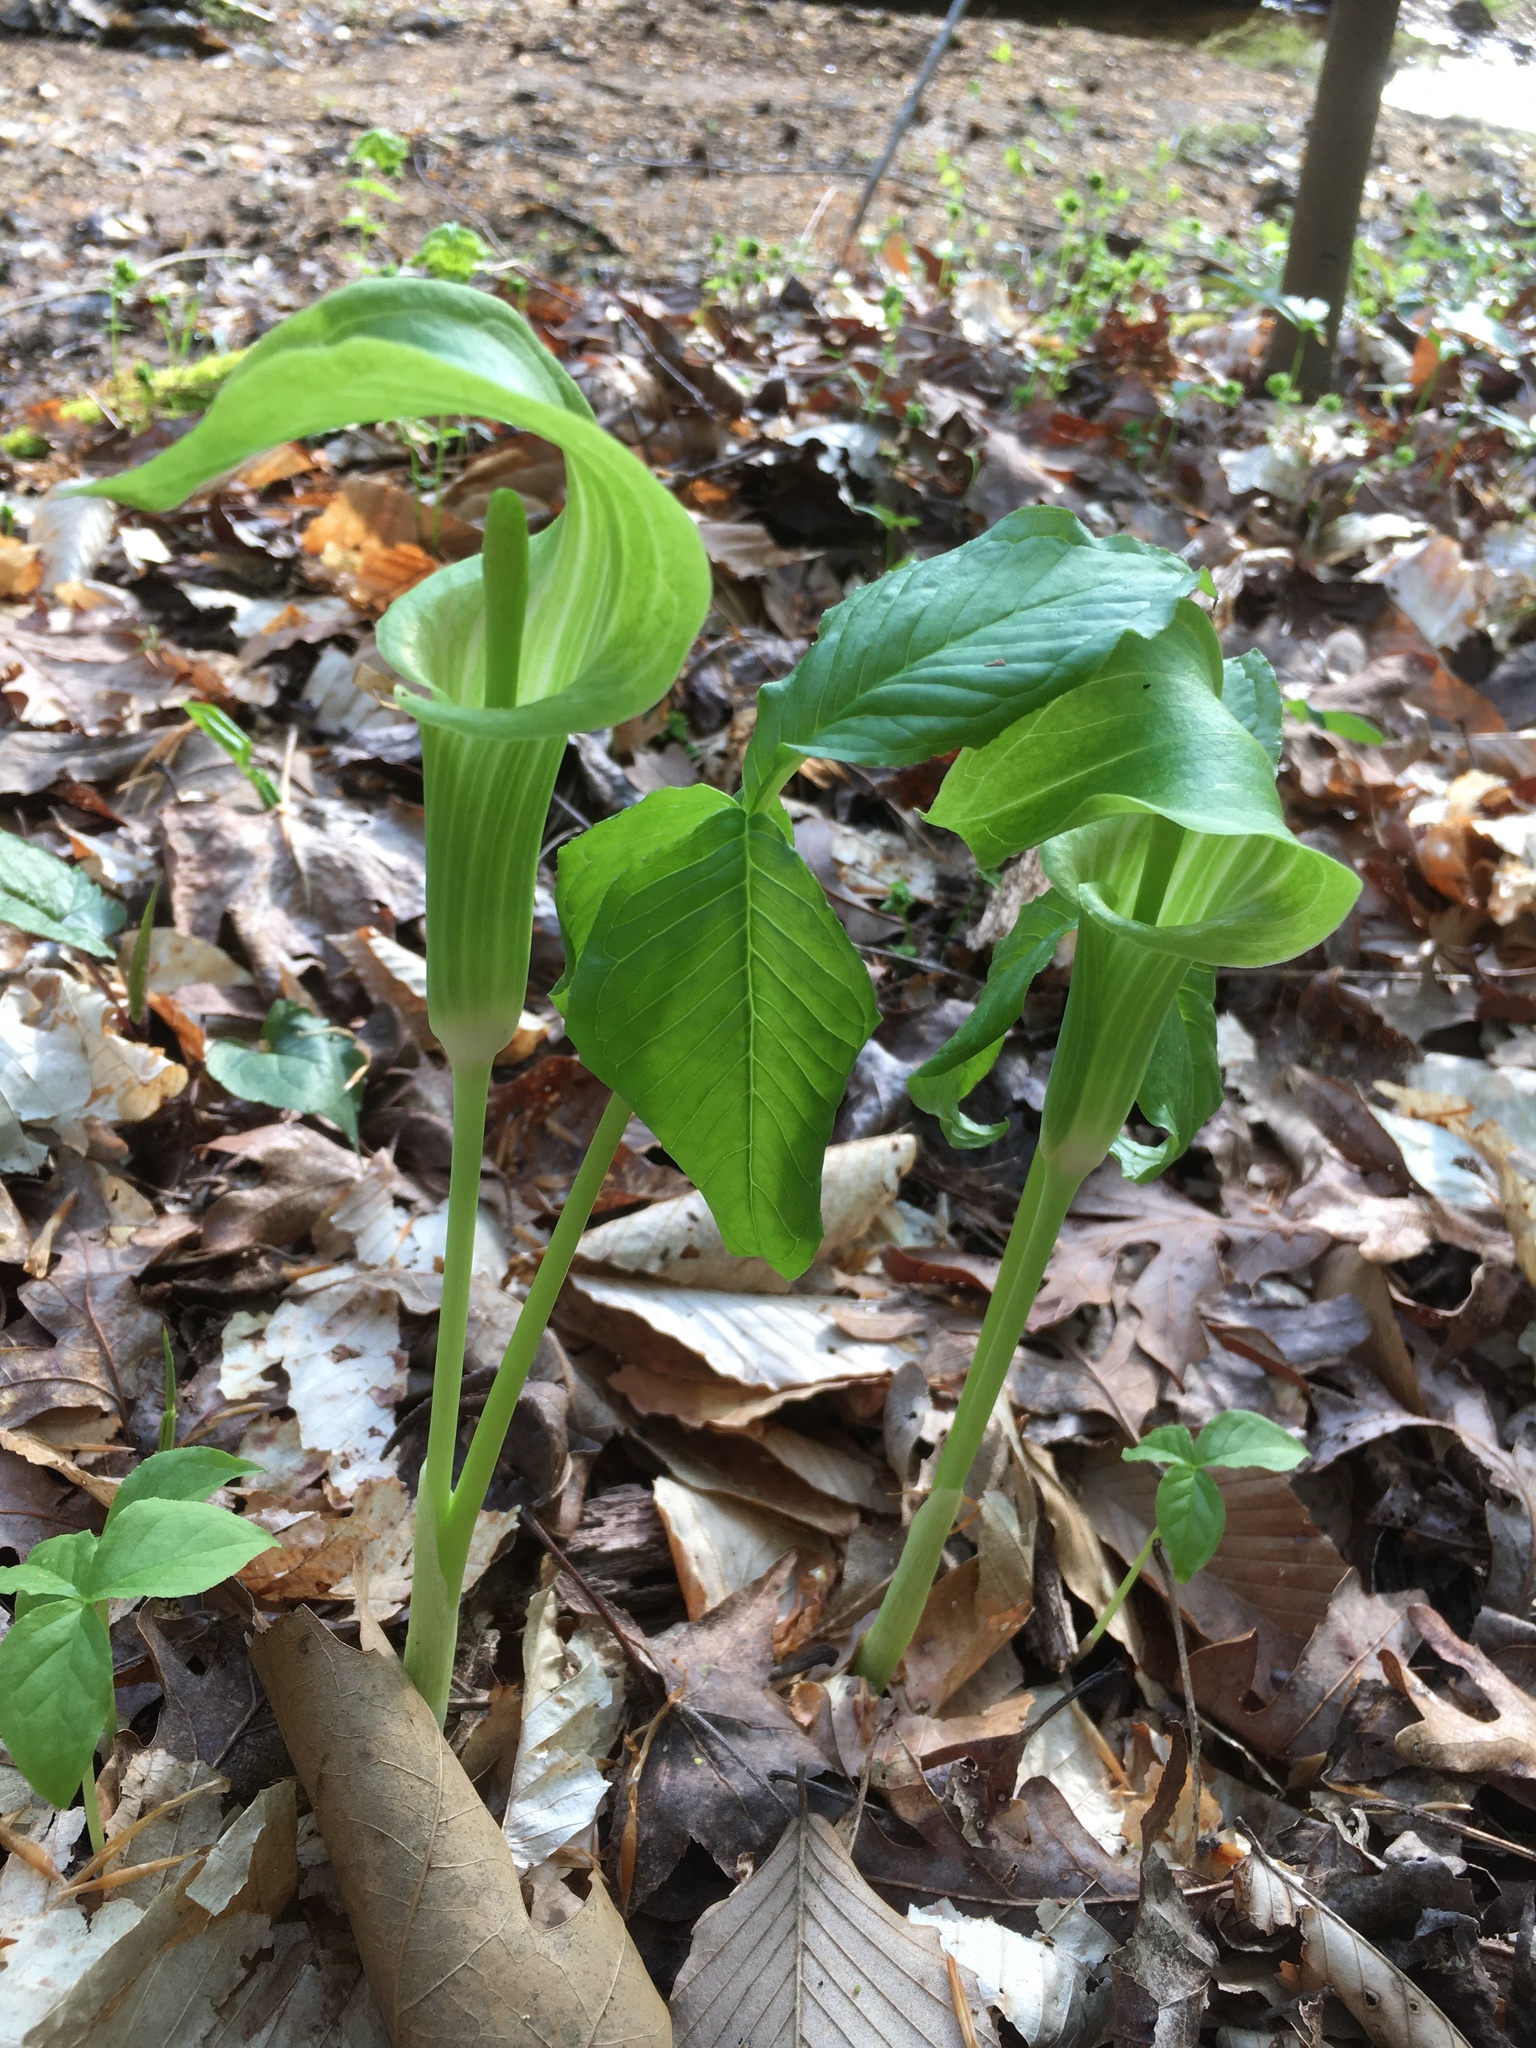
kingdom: Plantae
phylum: Tracheophyta
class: Liliopsida
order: Alismatales
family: Araceae
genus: Arisaema
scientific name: Arisaema triphyllum
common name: Jack-in-the-pulpit
